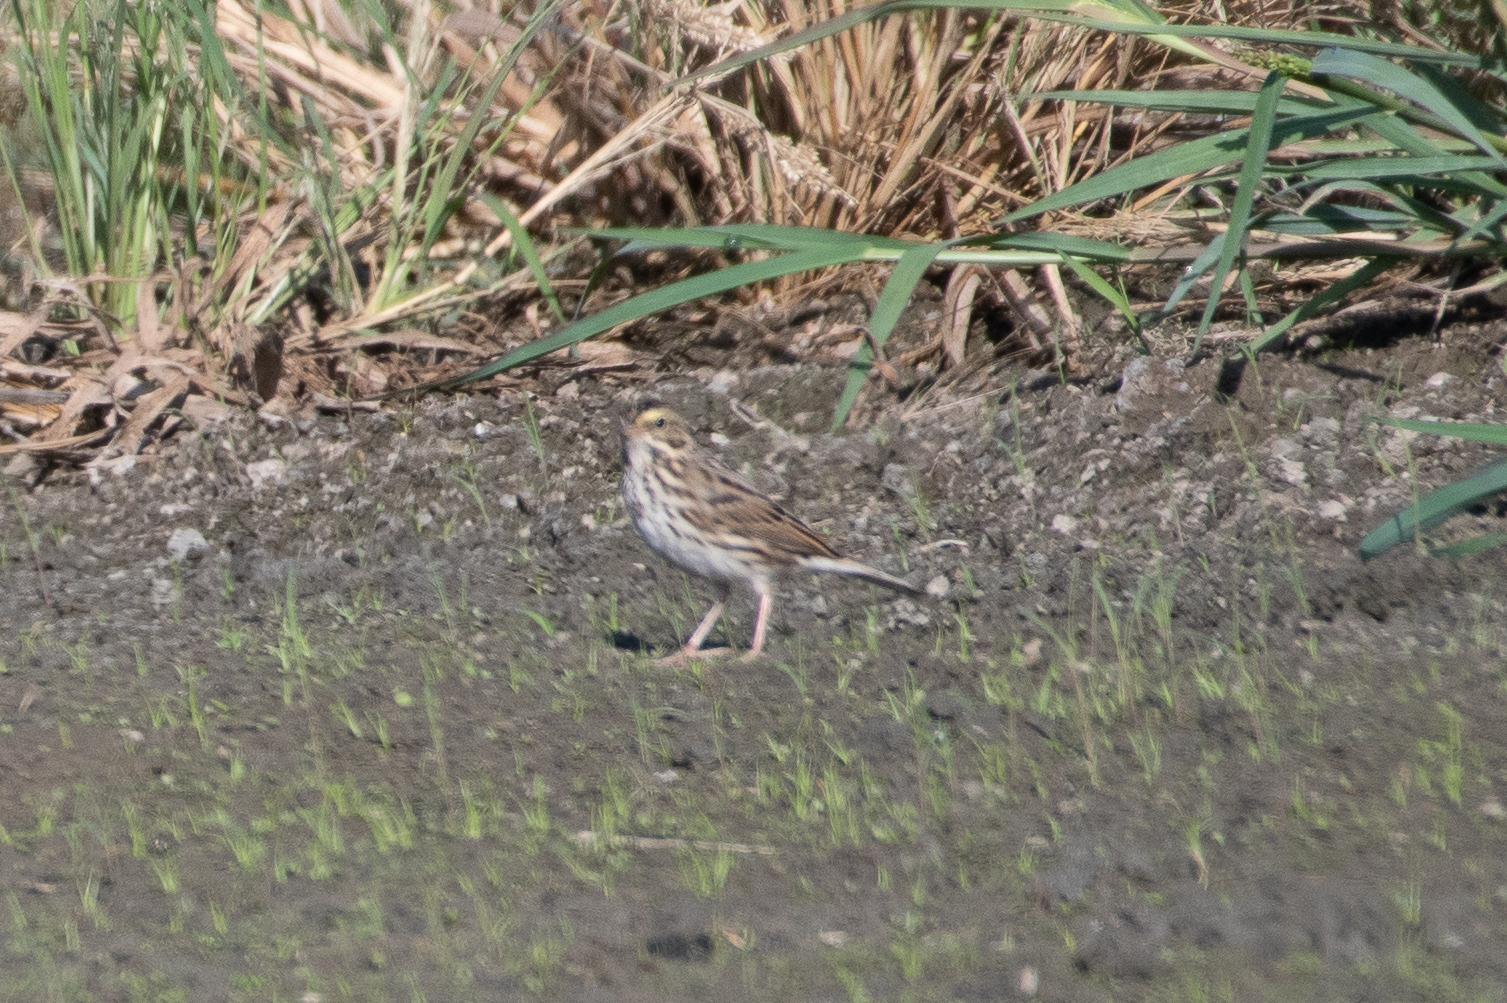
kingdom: Animalia
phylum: Chordata
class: Aves
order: Passeriformes
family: Passerellidae
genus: Passerculus
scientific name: Passerculus sandwichensis
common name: Savannah sparrow
